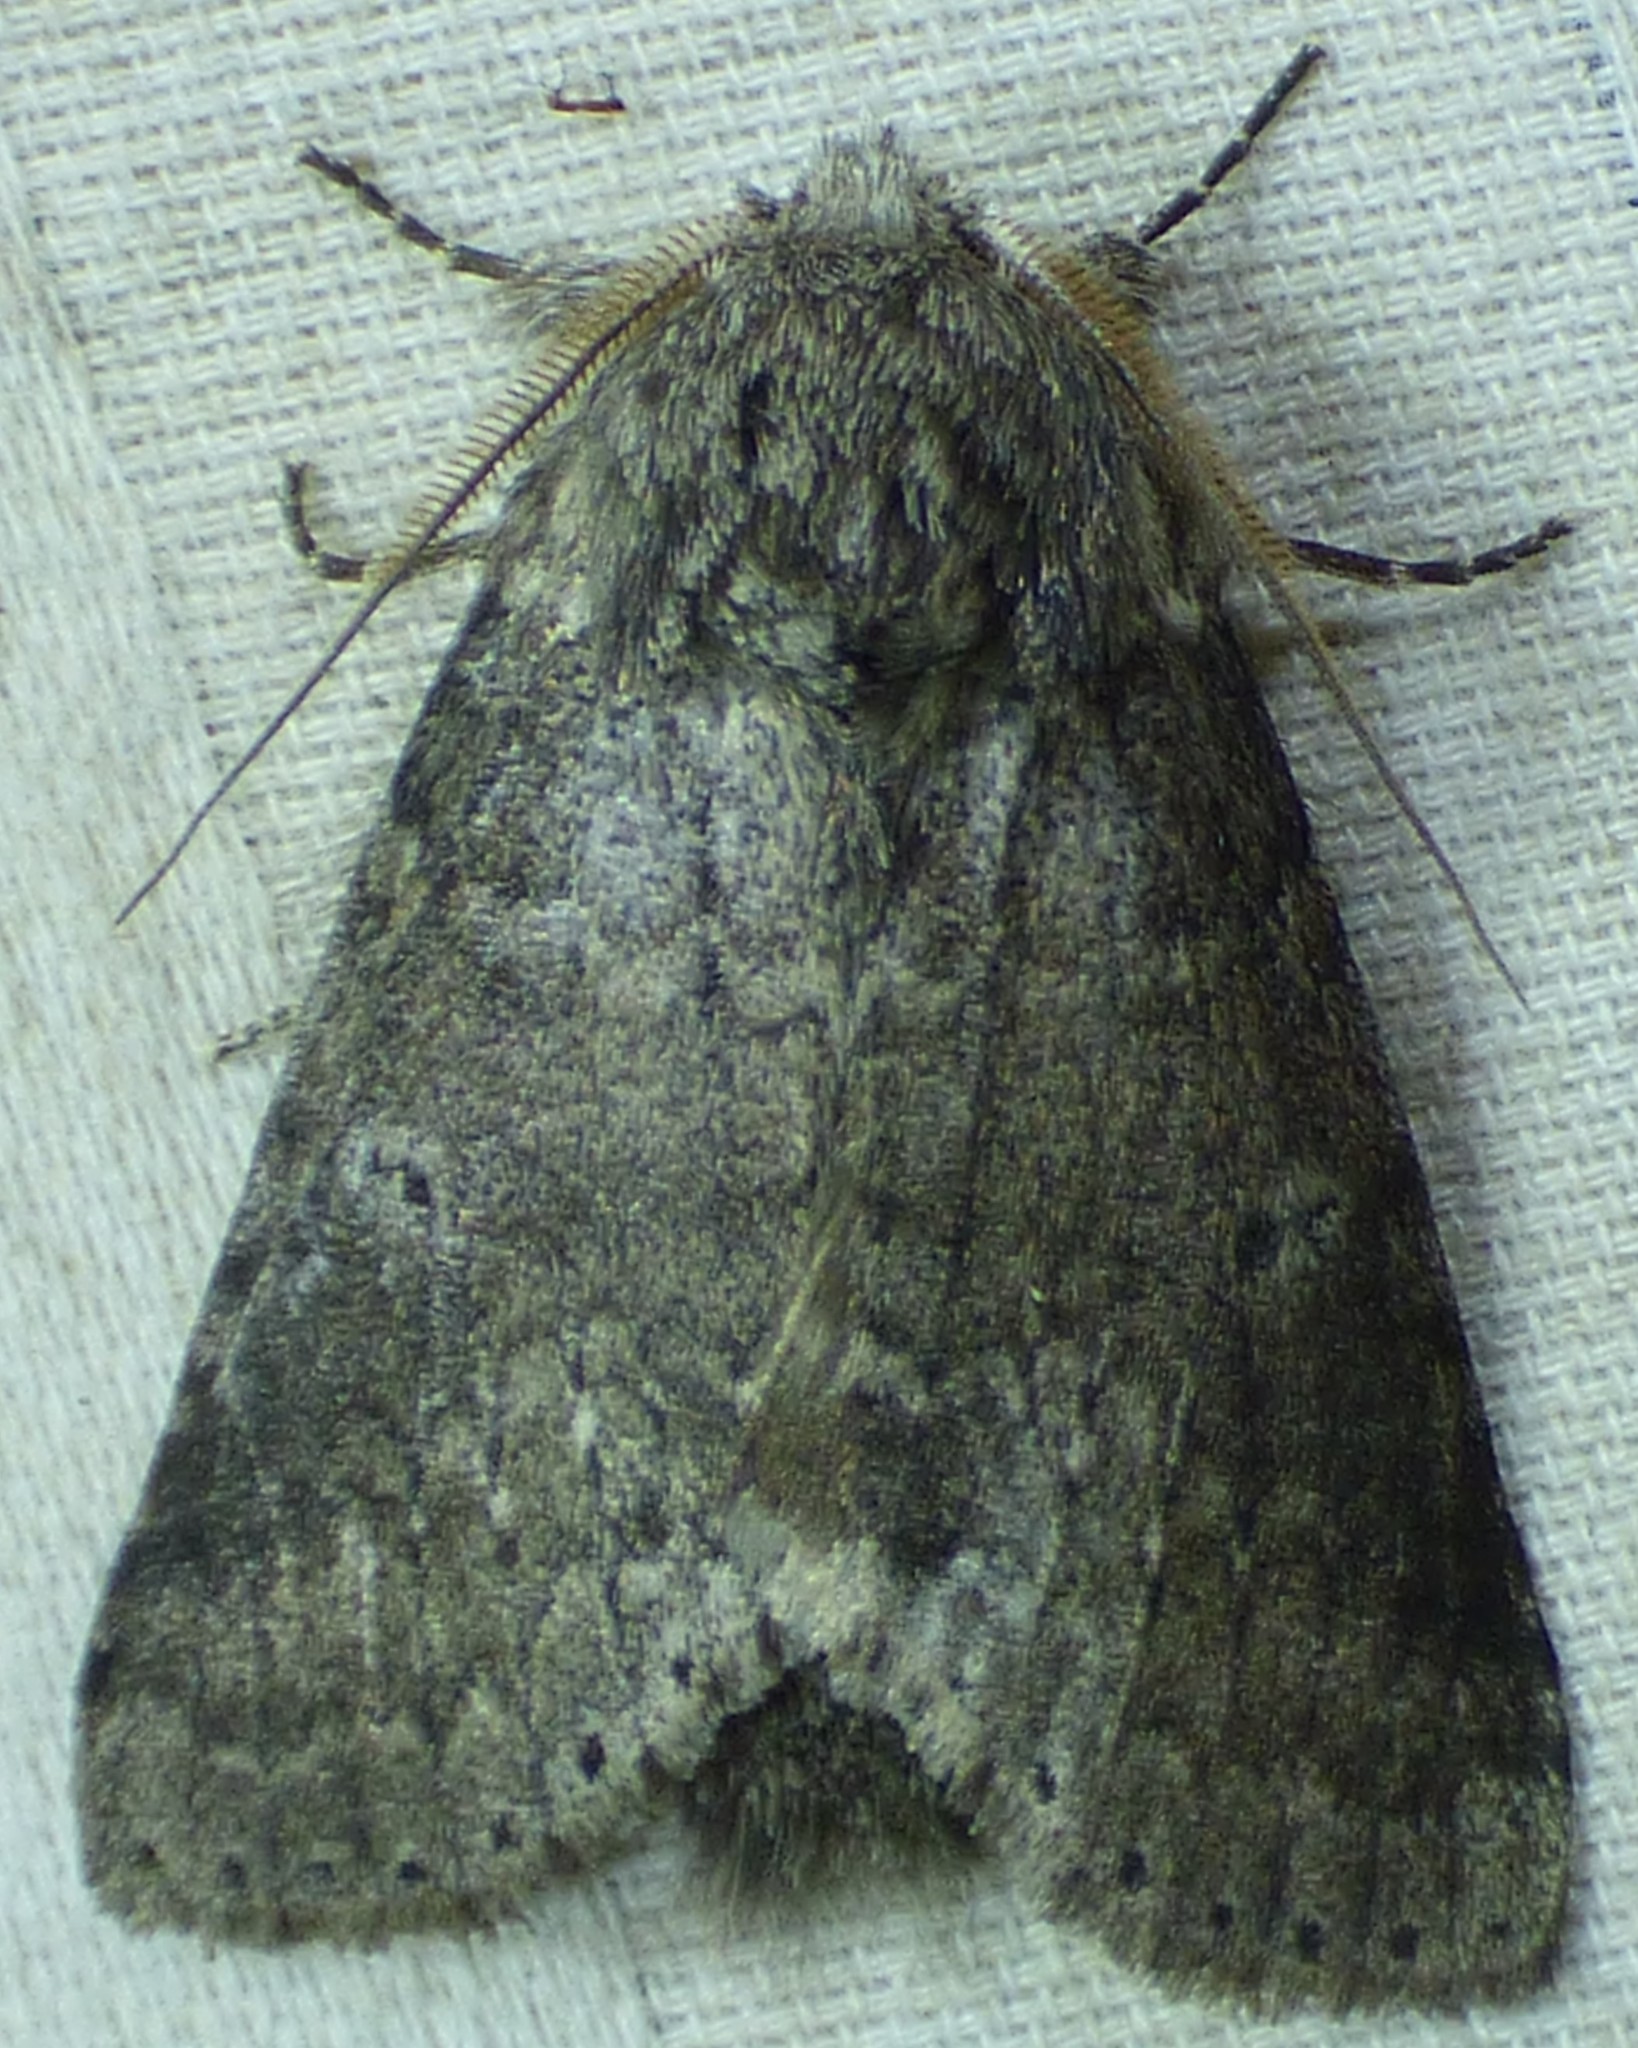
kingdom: Animalia
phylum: Arthropoda
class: Insecta
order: Lepidoptera
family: Notodontidae
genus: Lochmaeus
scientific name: Lochmaeus manteo
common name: Variable oakleaf caterpillar moth
